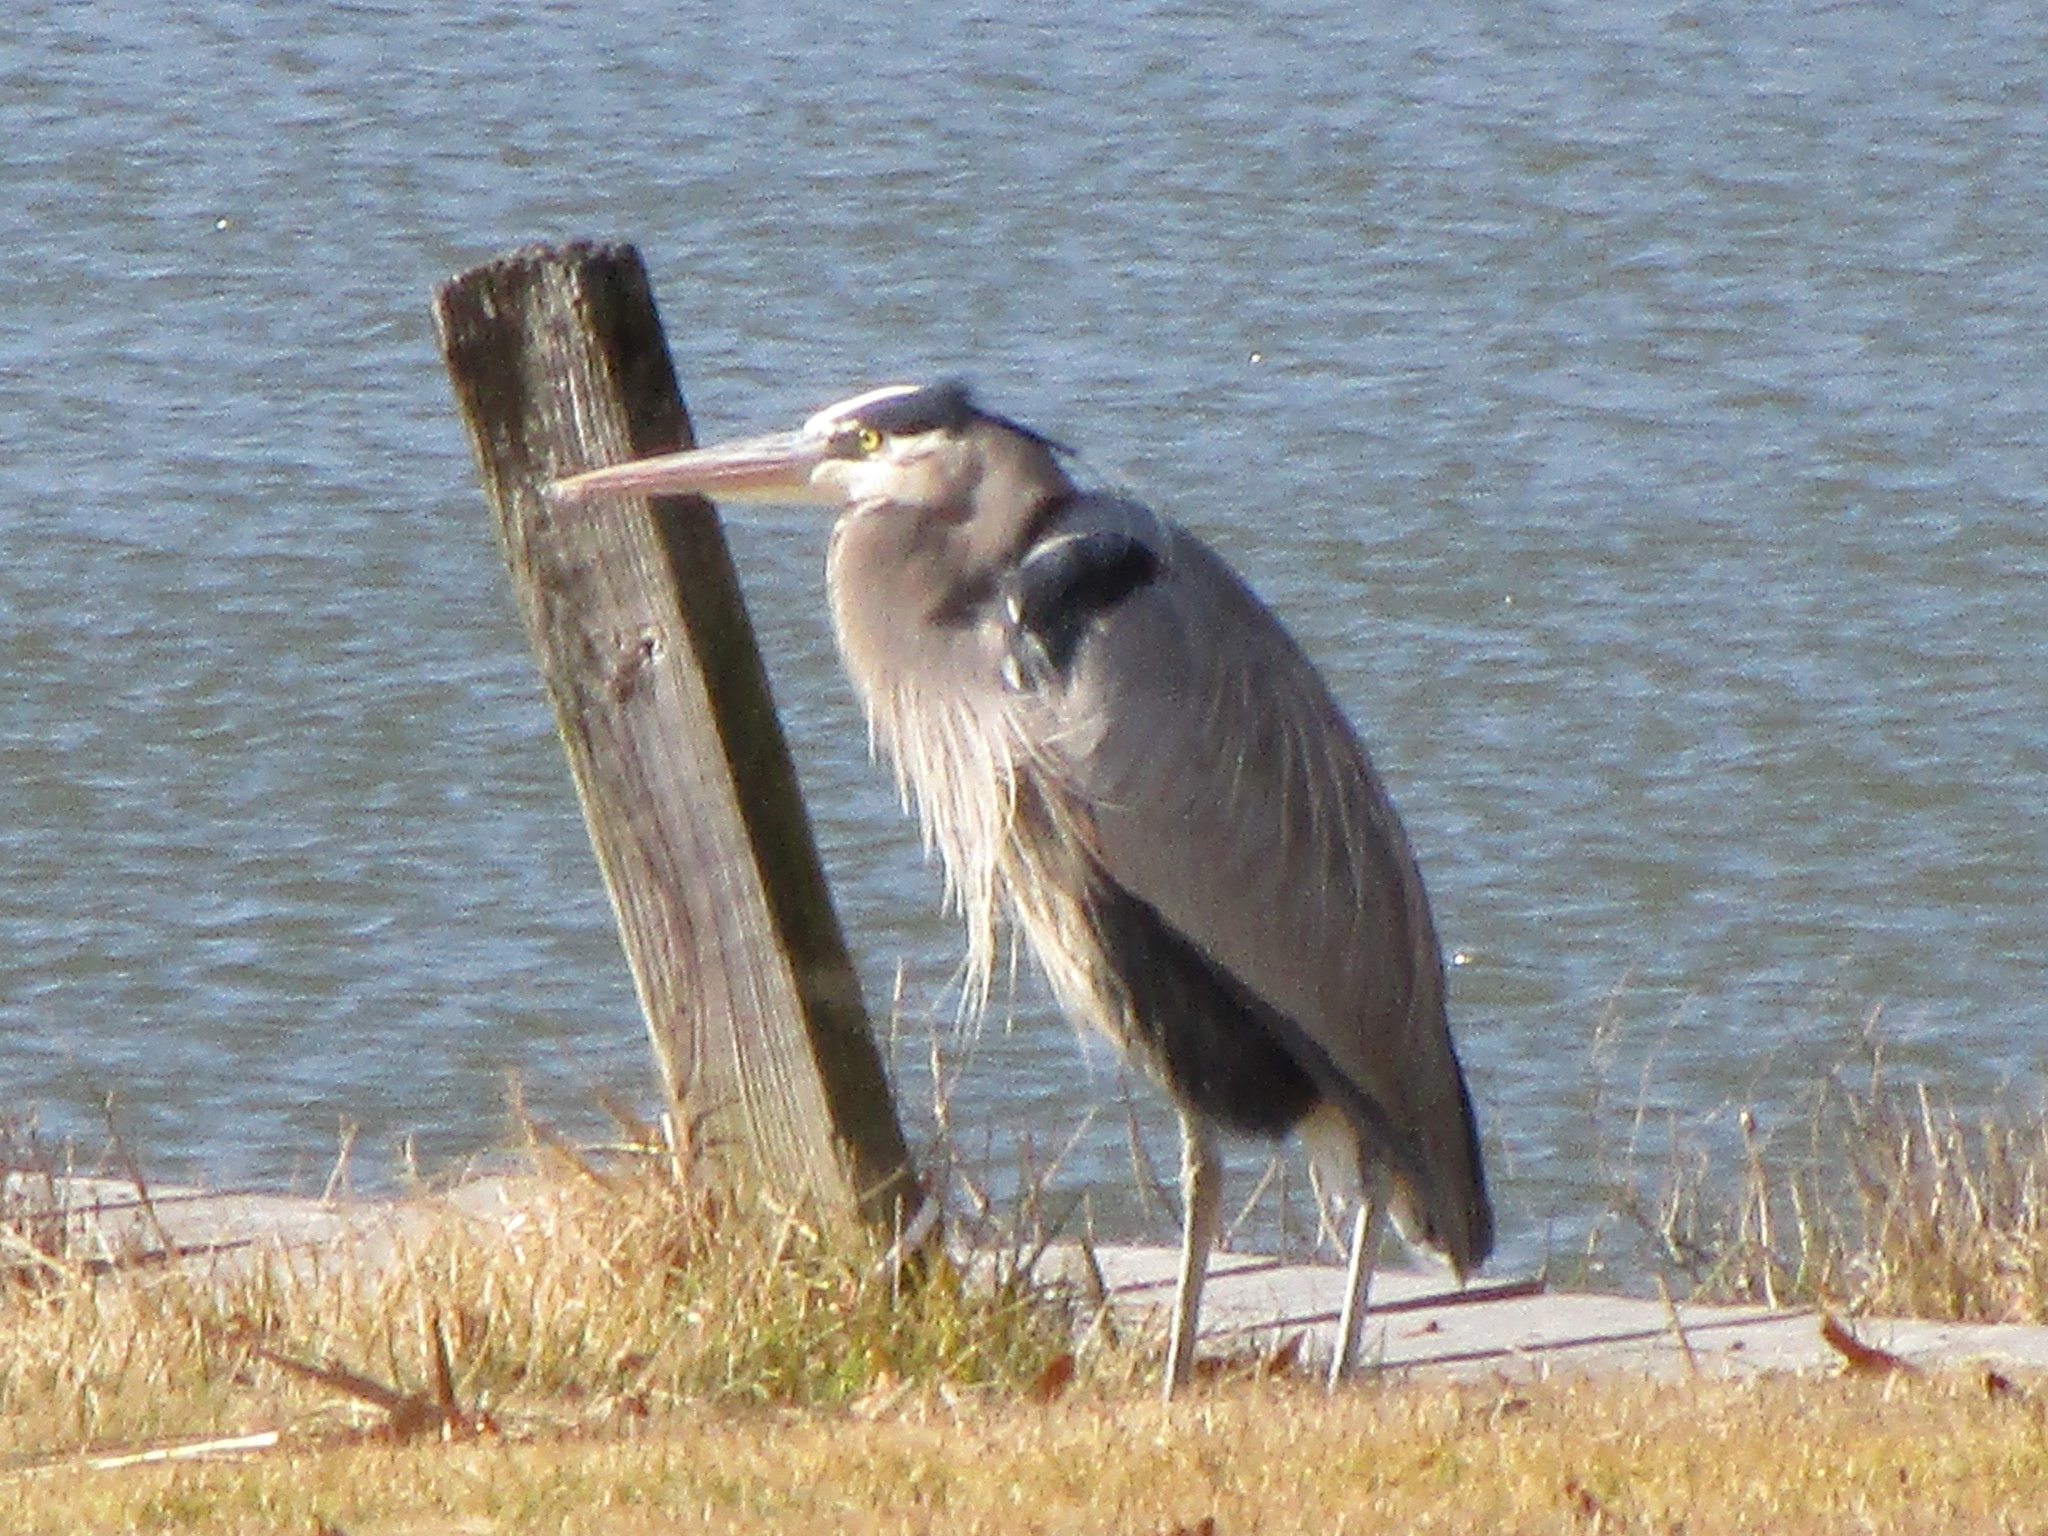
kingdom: Animalia
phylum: Chordata
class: Aves
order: Pelecaniformes
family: Ardeidae
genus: Ardea
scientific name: Ardea herodias
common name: Great blue heron
